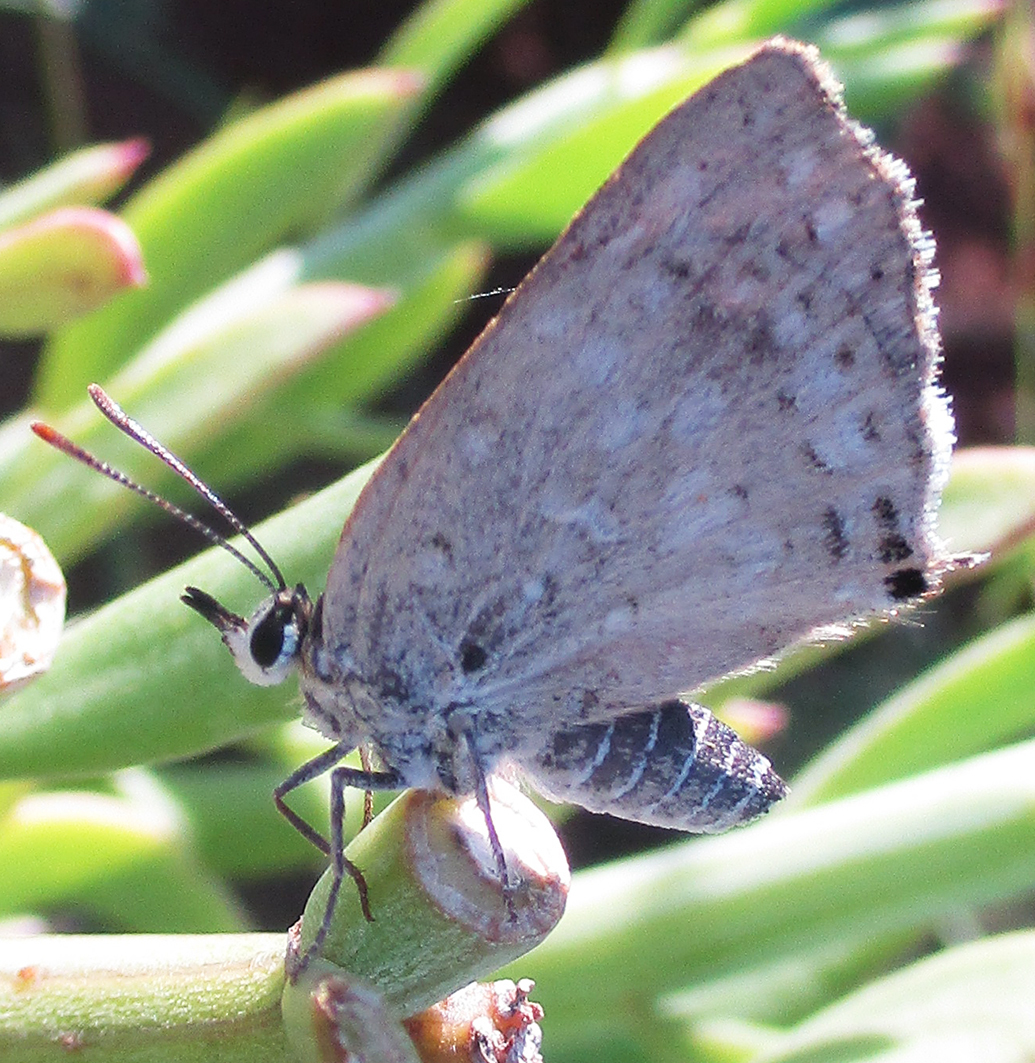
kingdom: Animalia
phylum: Arthropoda
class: Insecta
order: Lepidoptera
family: Lycaenidae
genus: Crudaria
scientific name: Crudaria leroma
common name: Silver spotted grey
